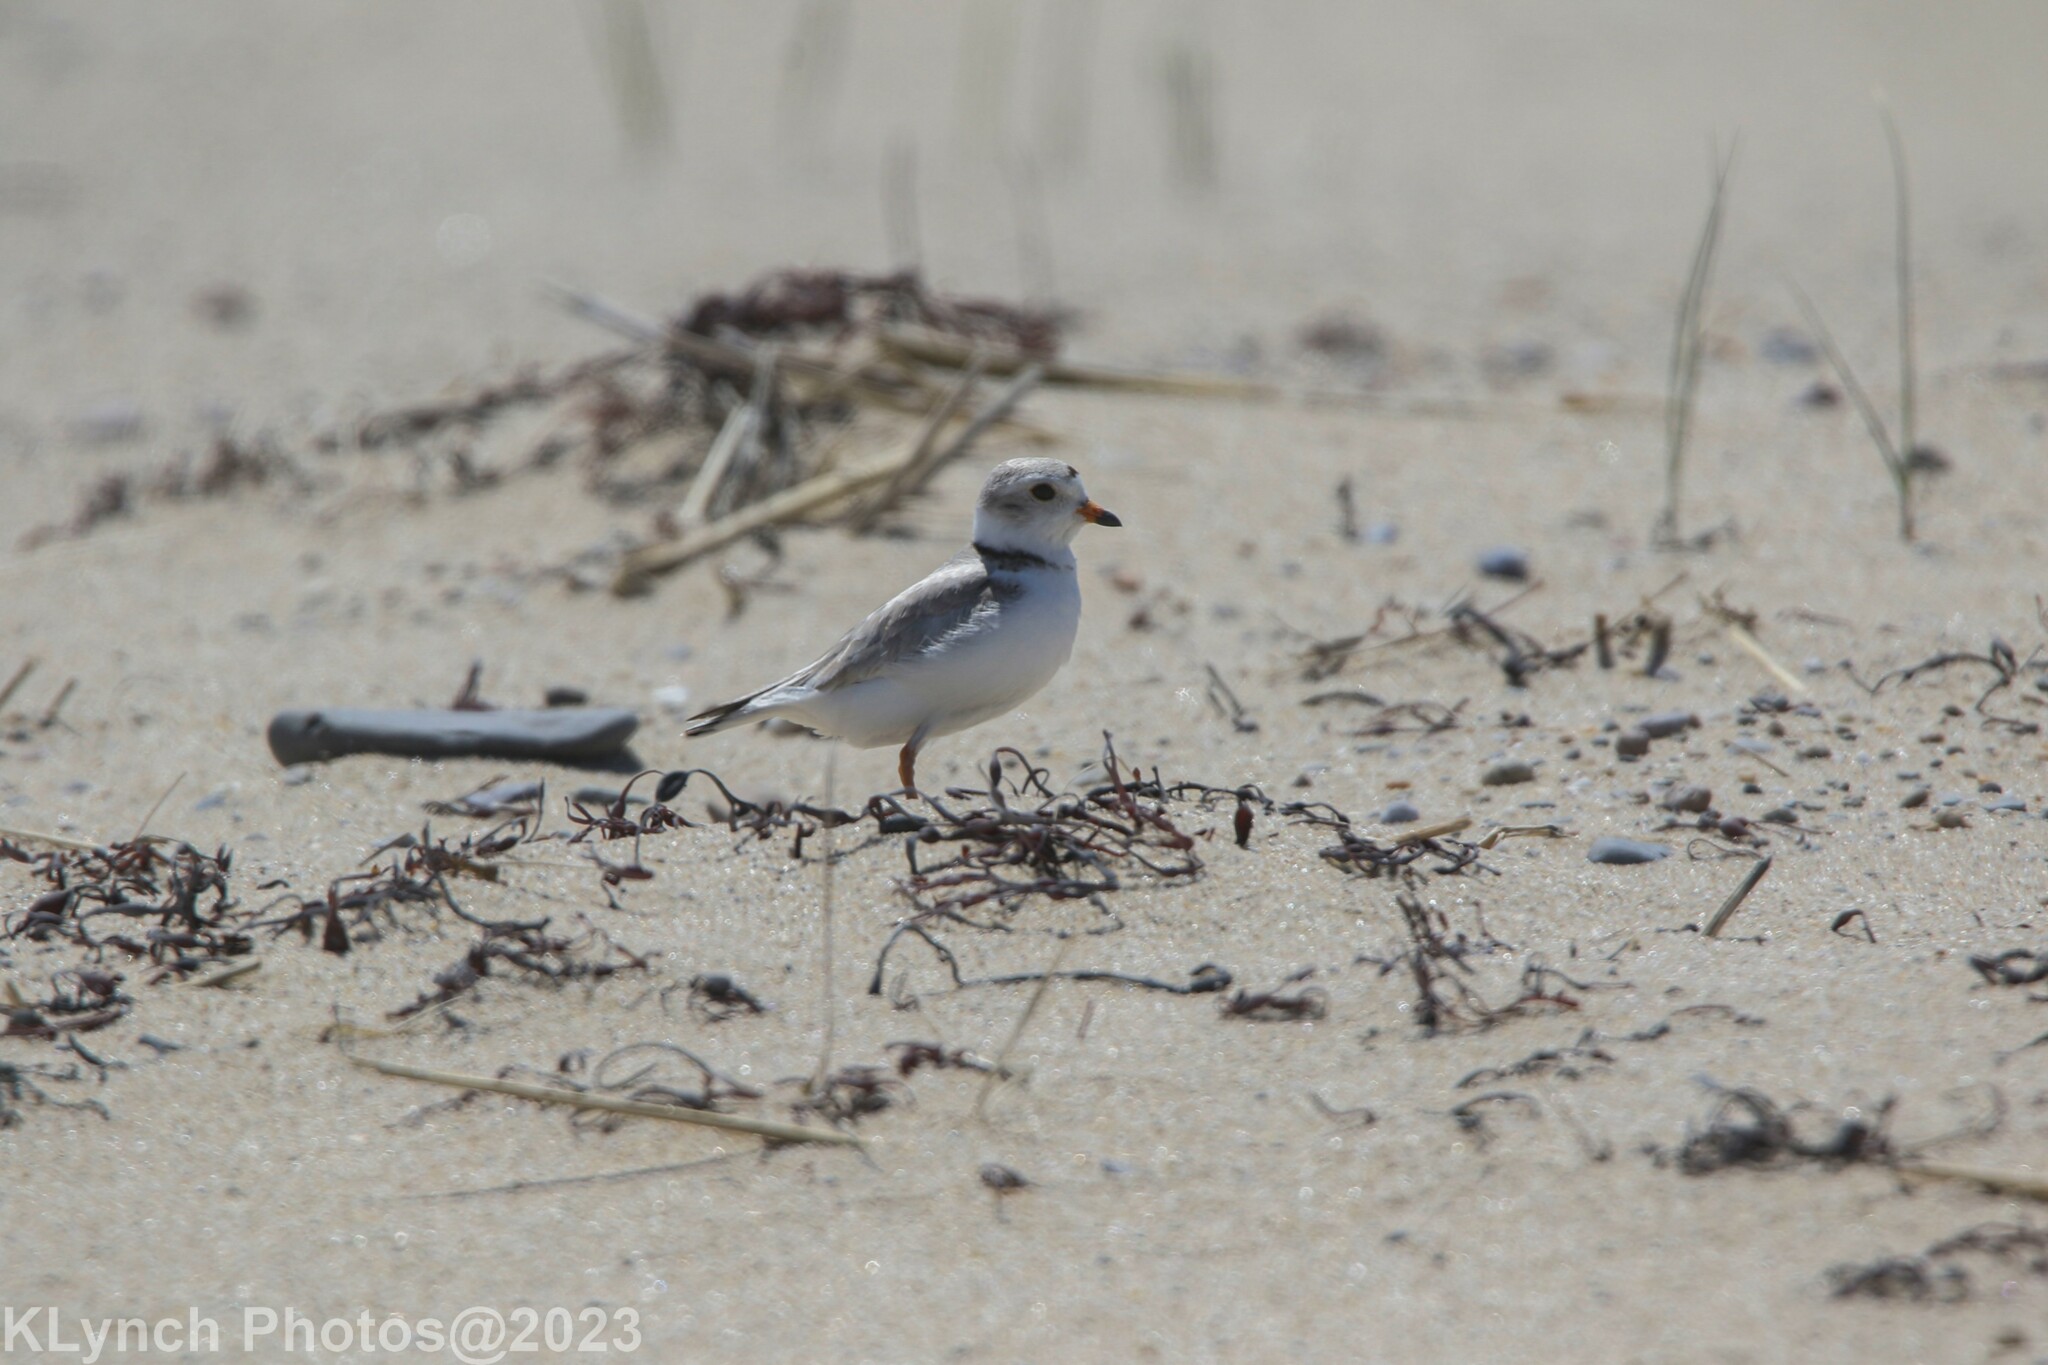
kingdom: Animalia
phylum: Chordata
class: Aves
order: Charadriiformes
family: Charadriidae
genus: Charadrius
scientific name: Charadrius melodus
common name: Piping plover
